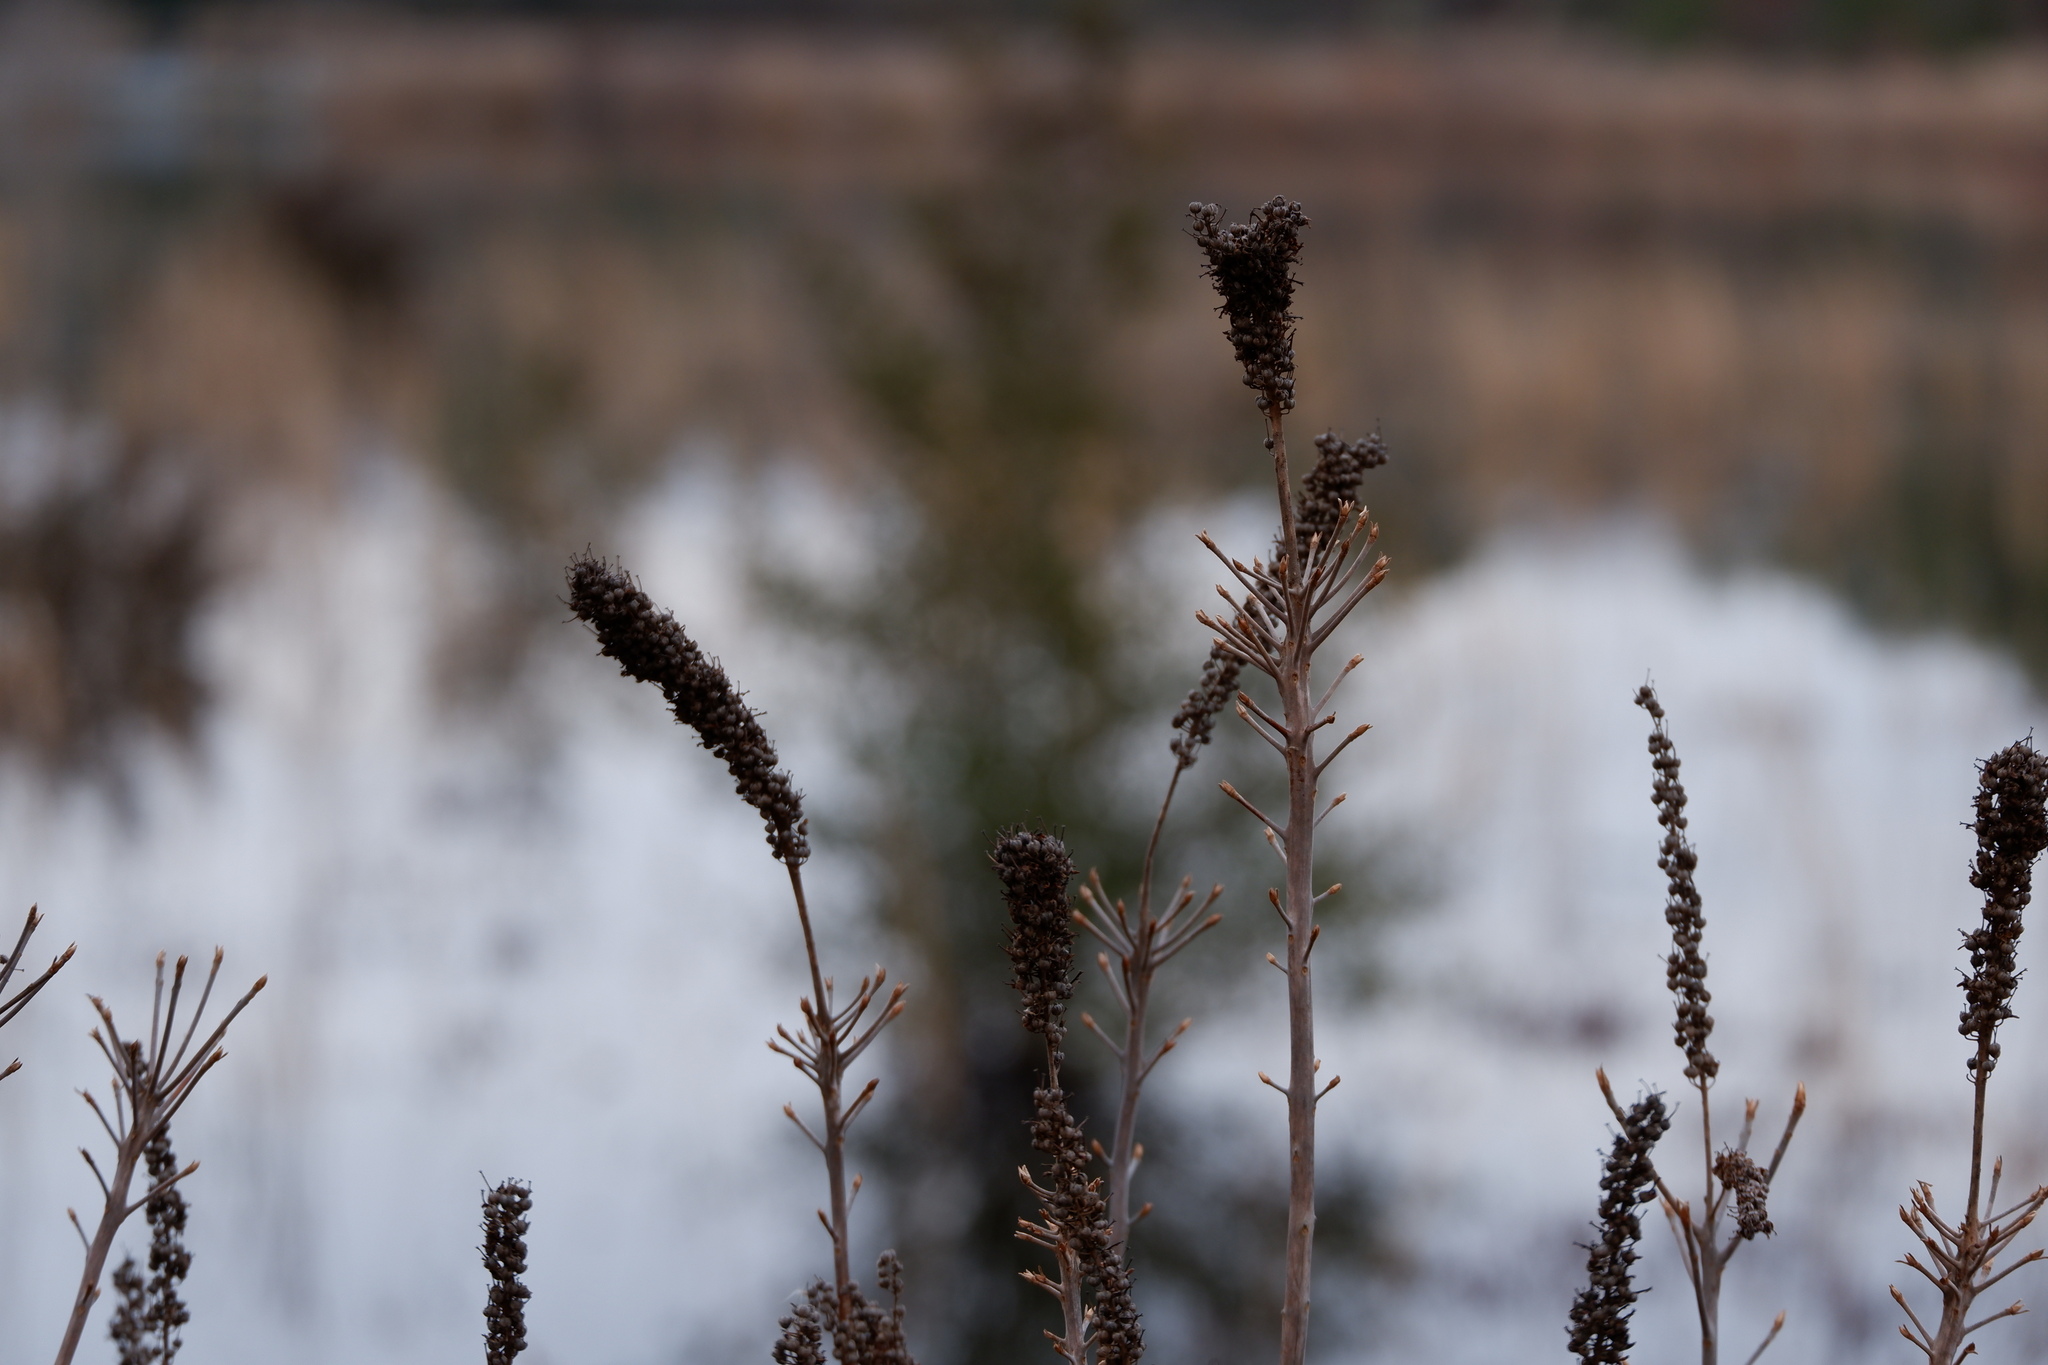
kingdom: Plantae
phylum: Tracheophyta
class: Magnoliopsida
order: Ericales
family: Clethraceae
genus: Clethra
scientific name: Clethra alnifolia
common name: Sweet pepperbush
